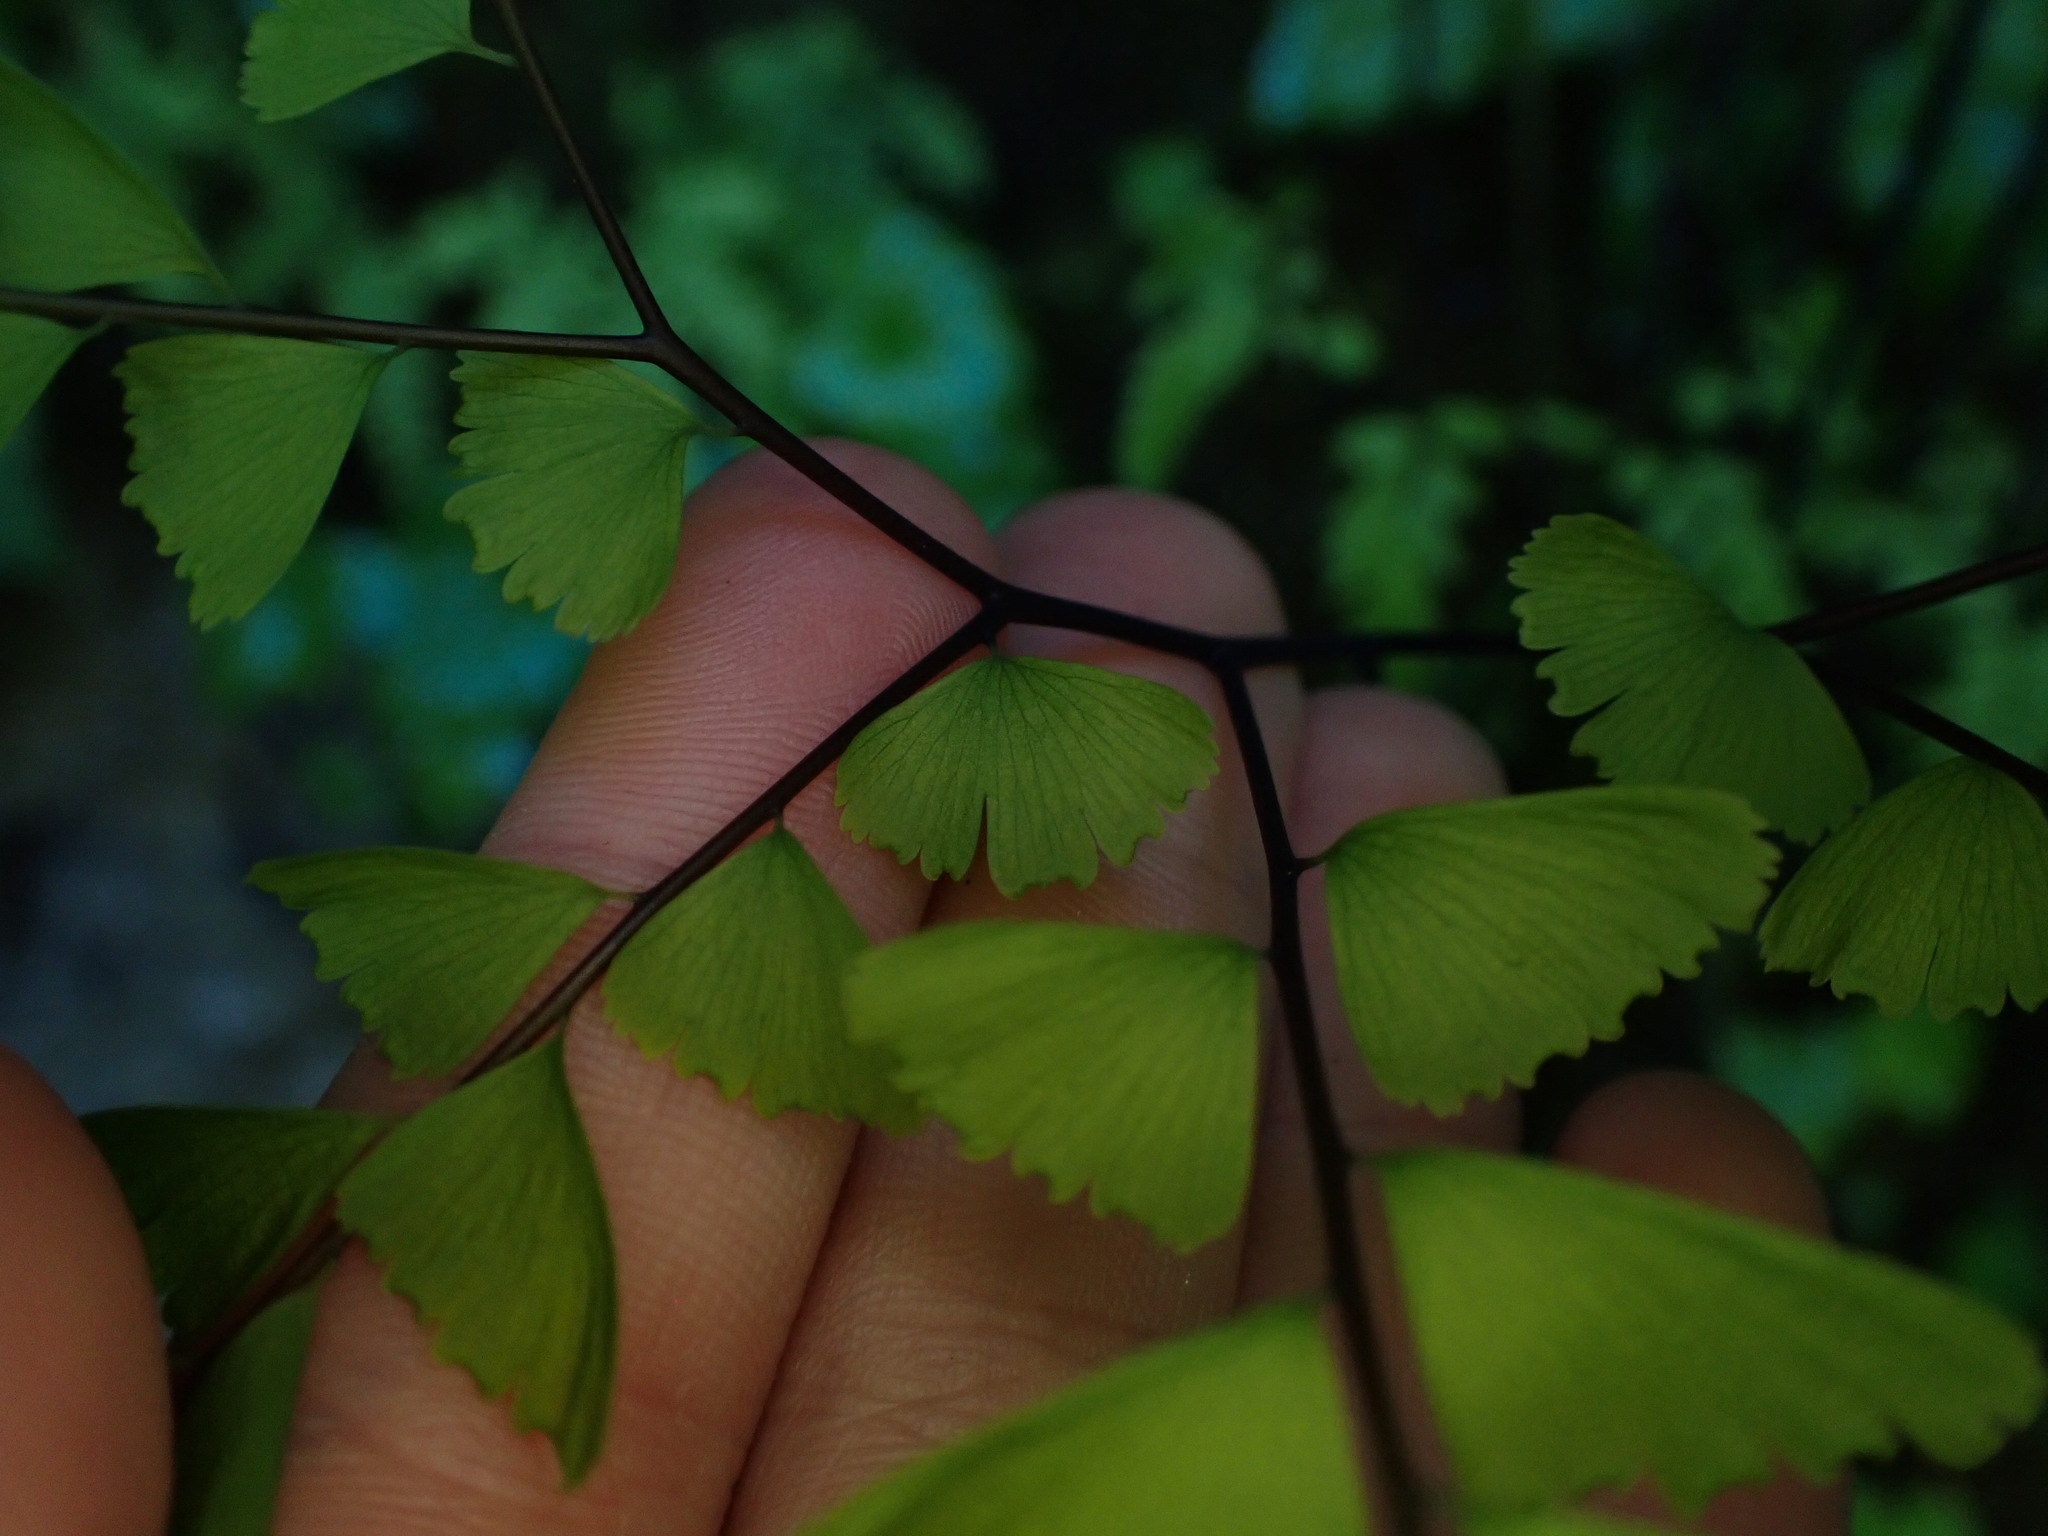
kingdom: Plantae
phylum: Tracheophyta
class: Polypodiopsida
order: Polypodiales
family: Pteridaceae
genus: Adiantum
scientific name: Adiantum aleuticum
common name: Aleutian maidenhair fern
